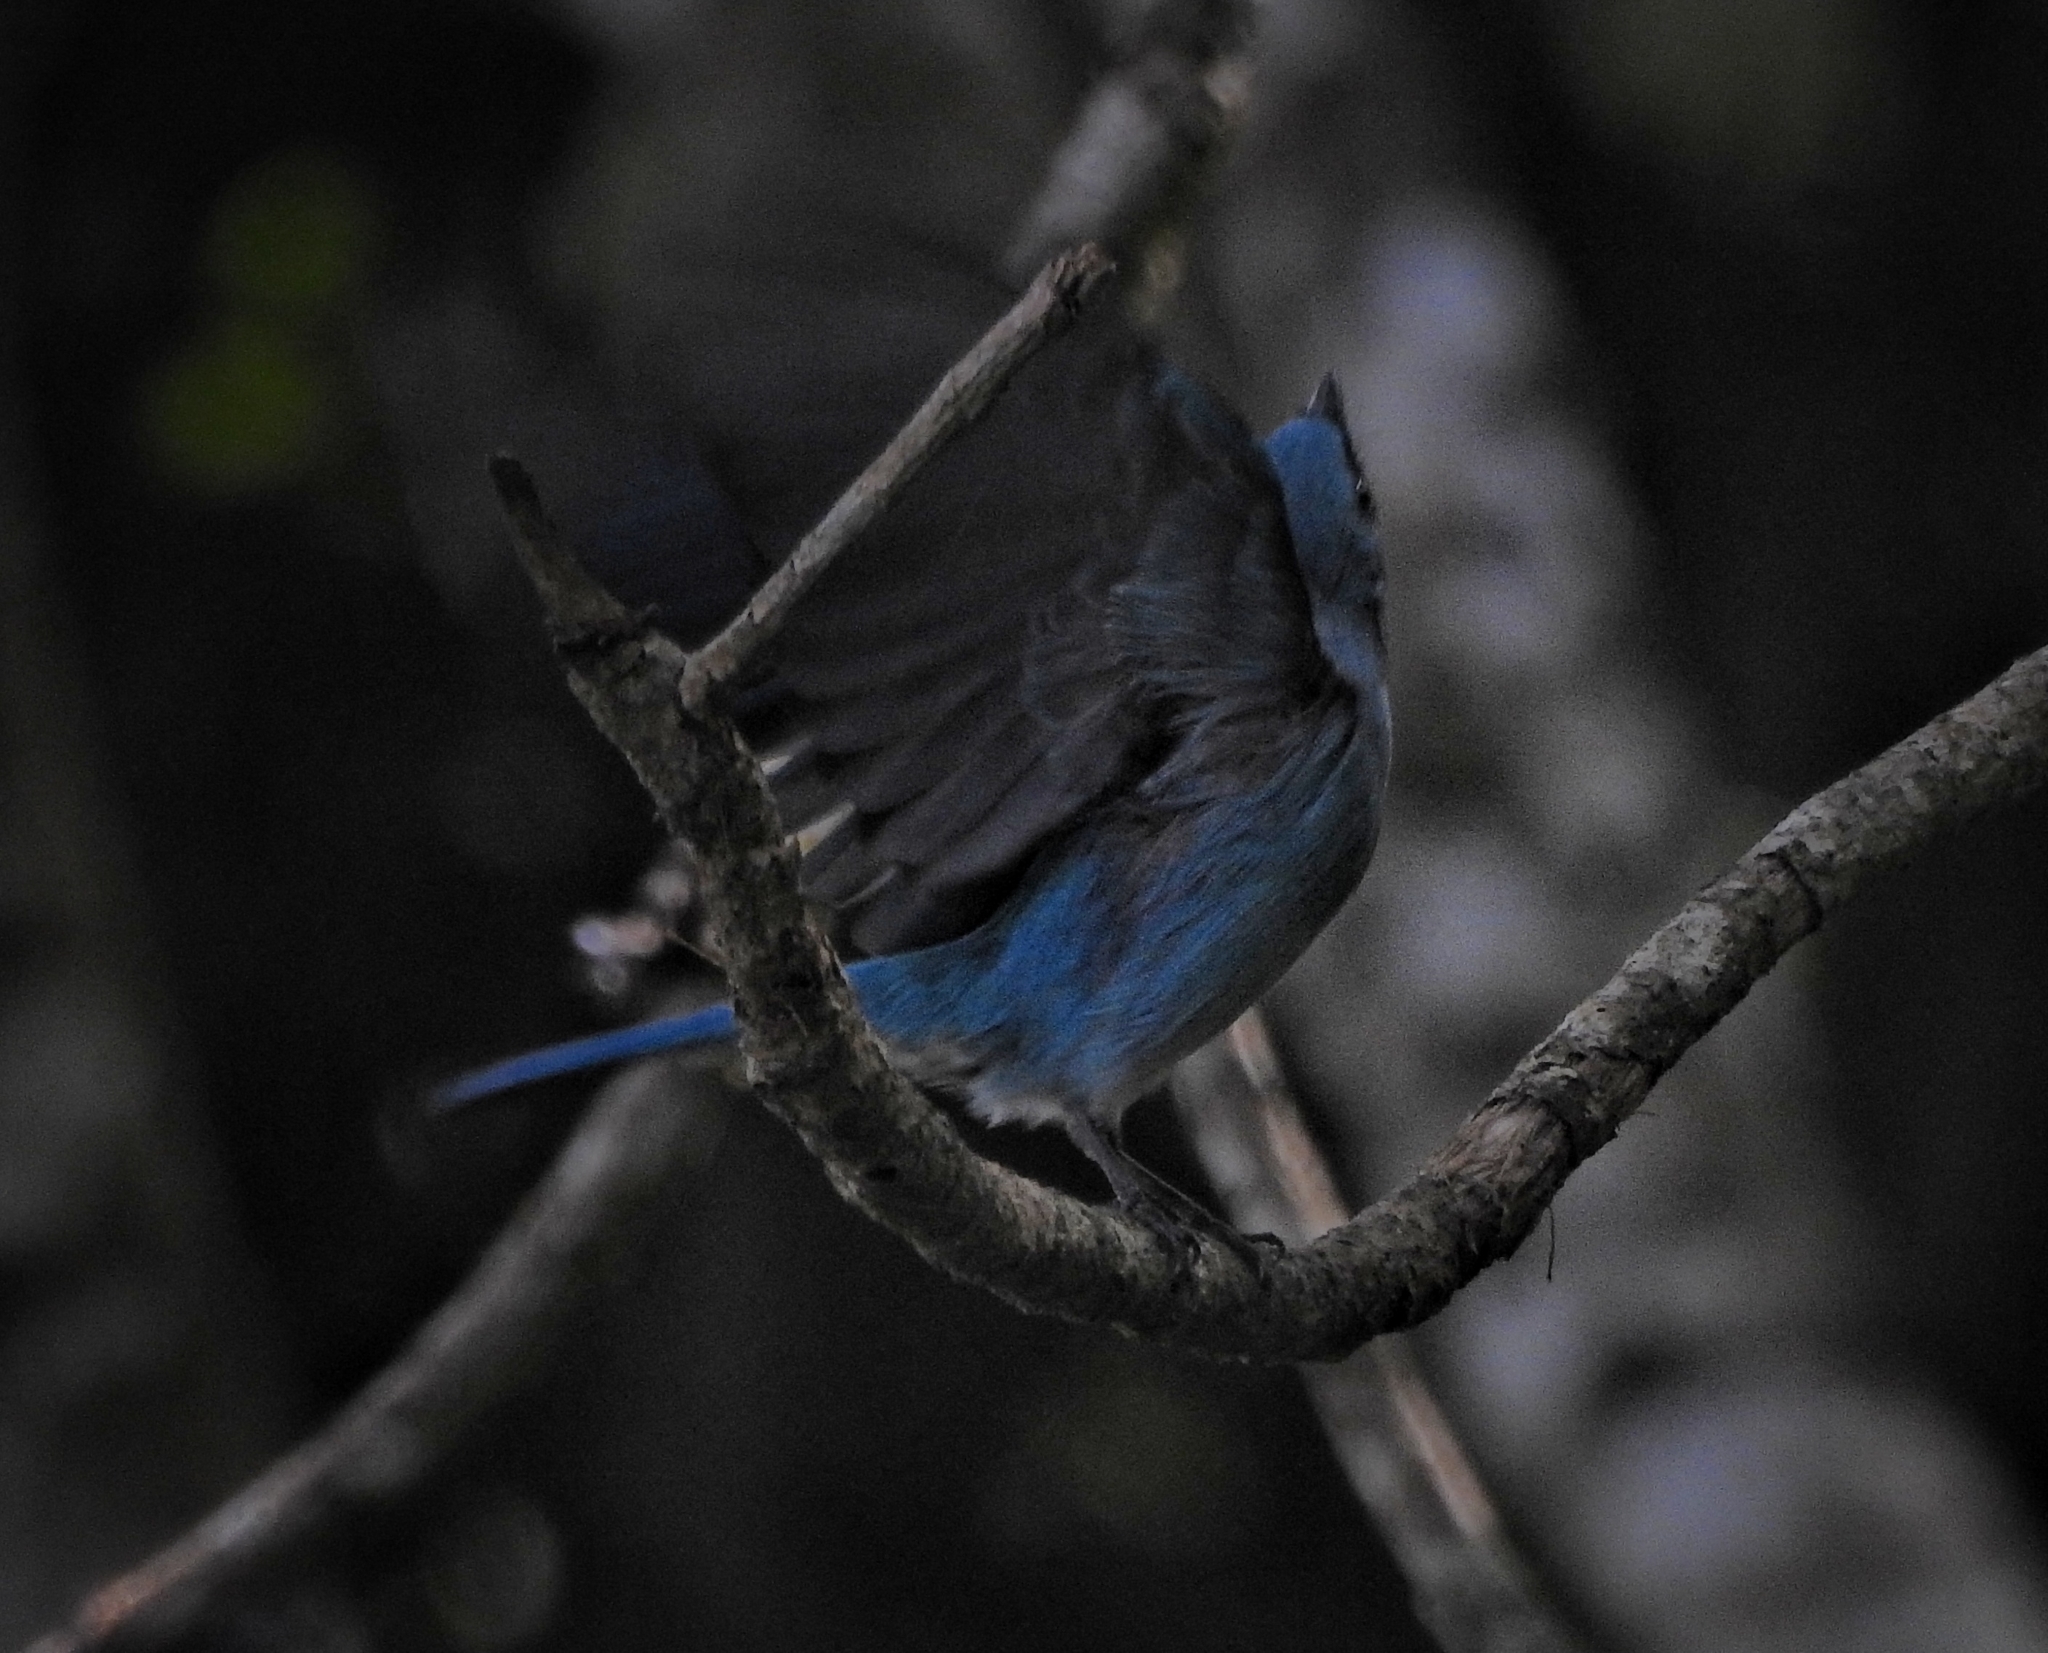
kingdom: Animalia
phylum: Chordata
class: Aves
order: Passeriformes
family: Muscicapidae
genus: Eumyias
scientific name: Eumyias thalassinus
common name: Verditer flycatcher
